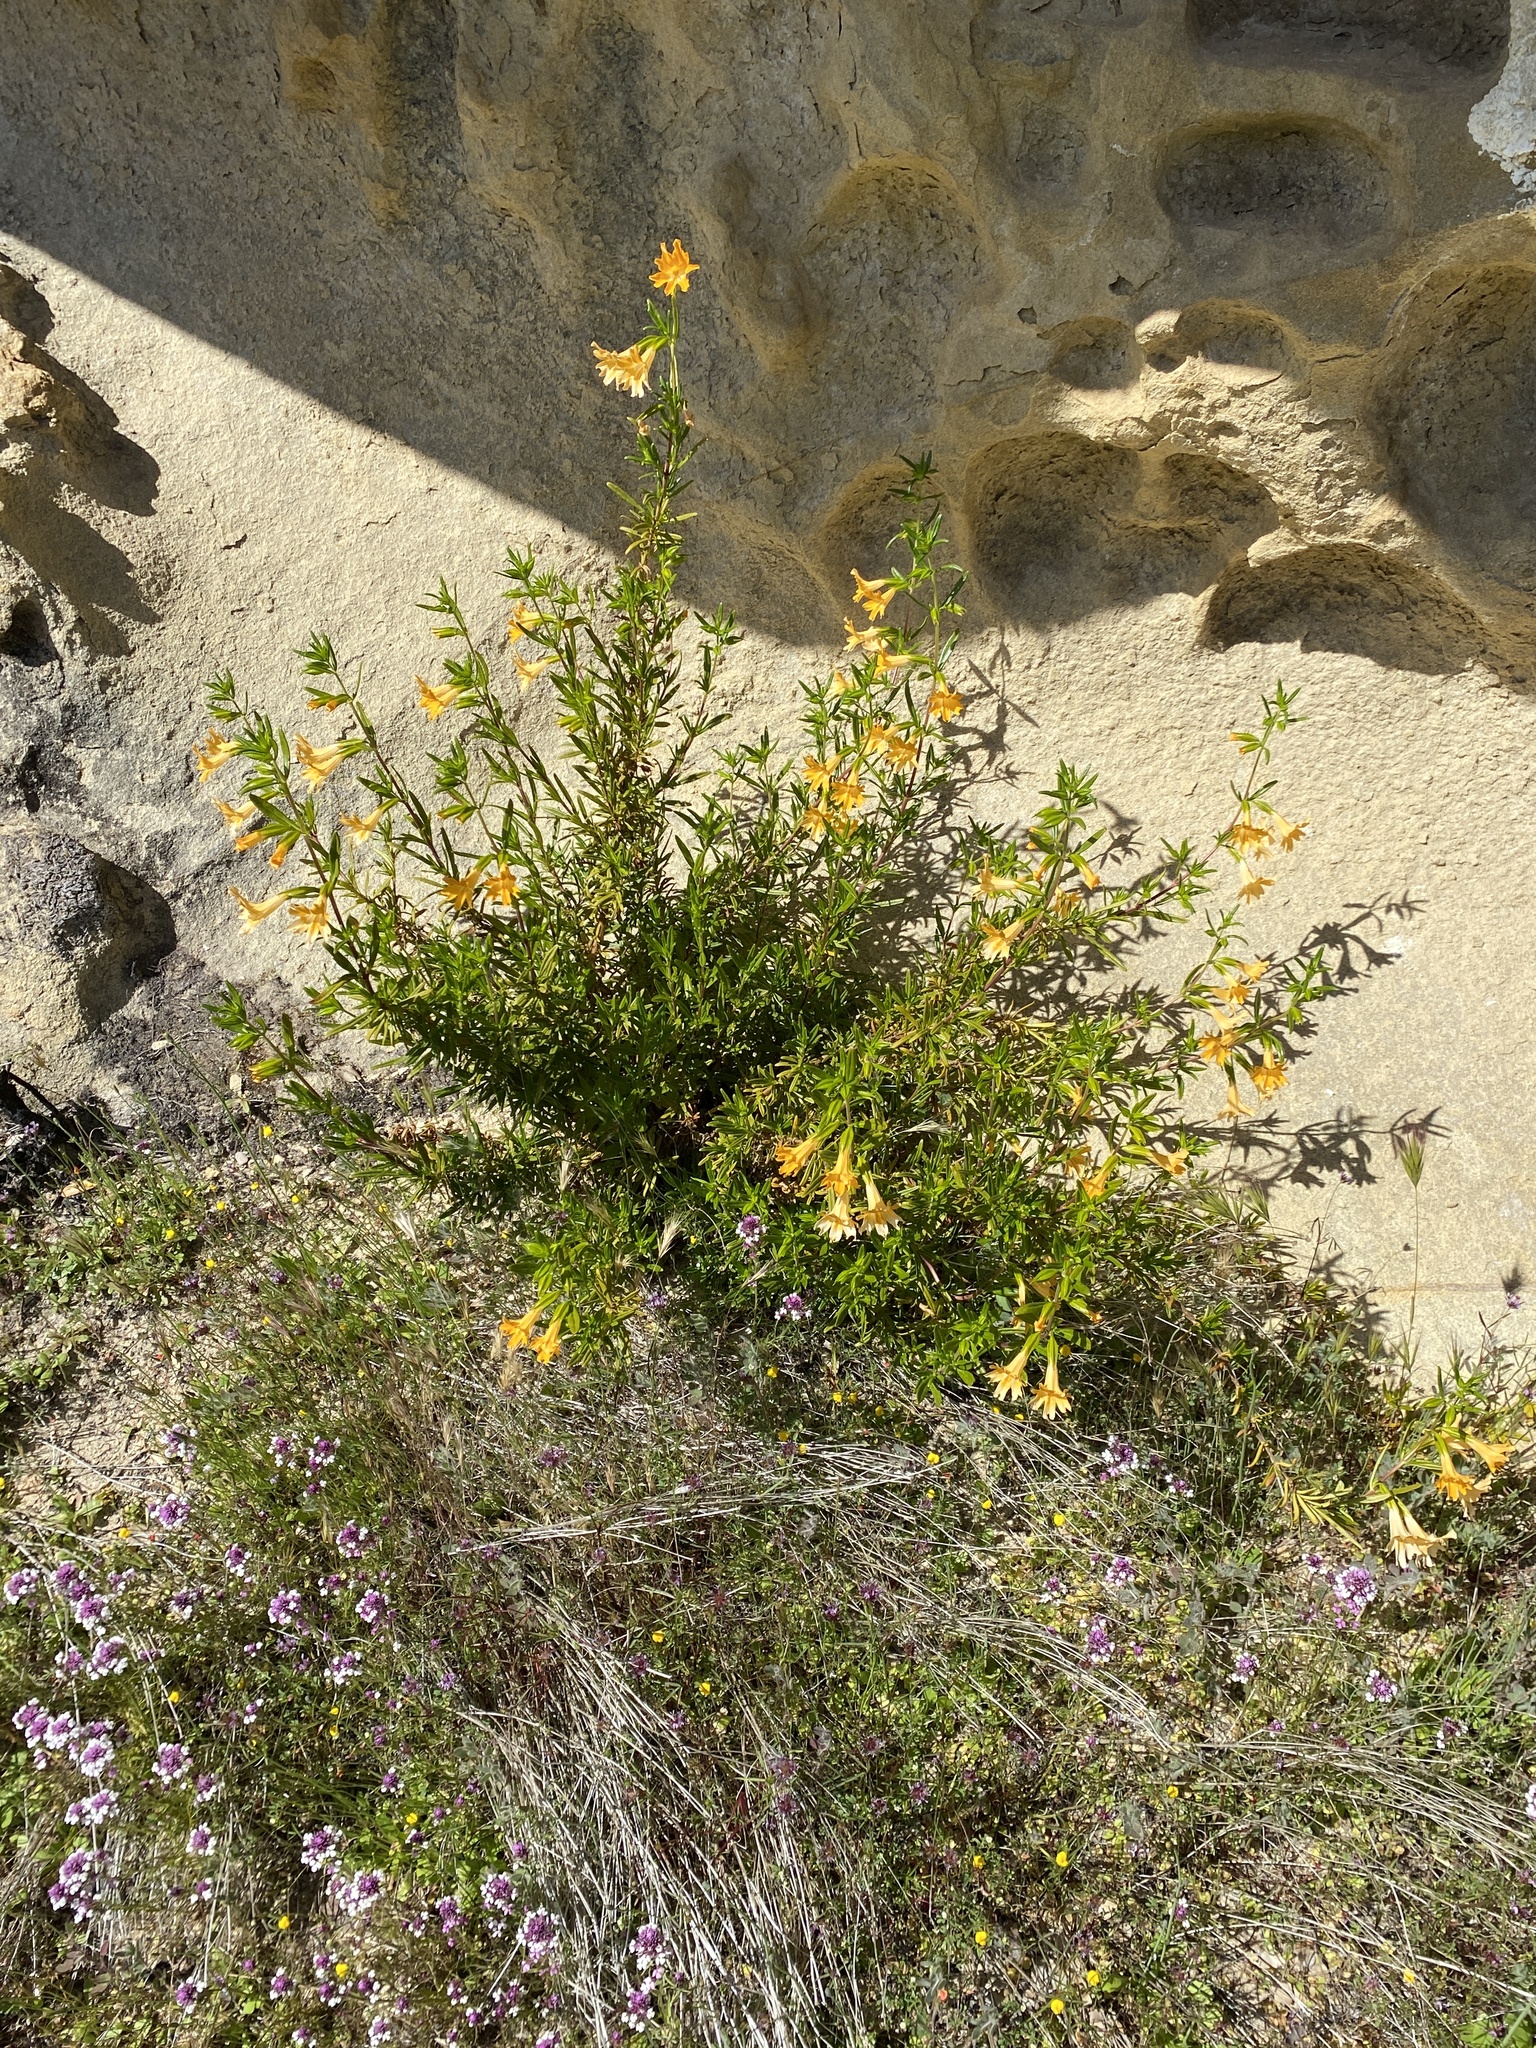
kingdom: Plantae
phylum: Tracheophyta
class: Magnoliopsida
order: Lamiales
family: Phrymaceae
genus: Diplacus
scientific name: Diplacus linearis
